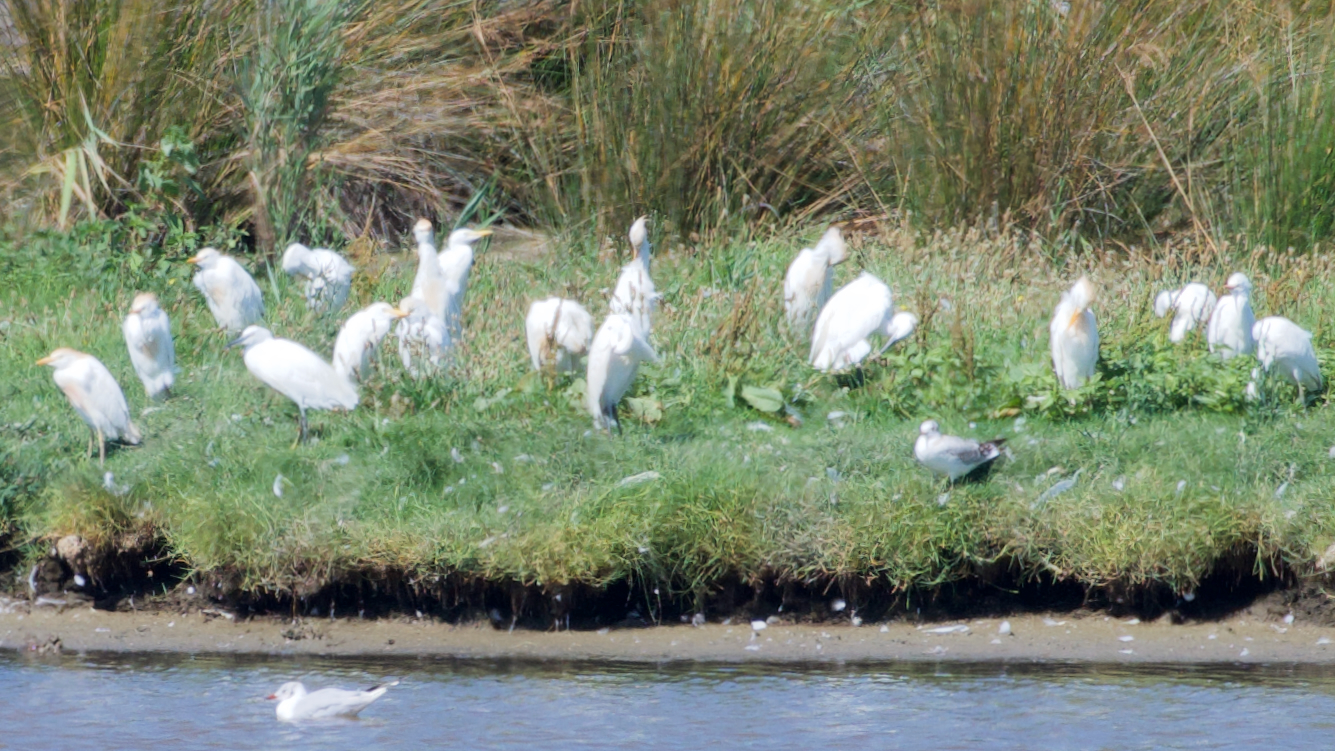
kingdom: Animalia
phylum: Chordata
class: Aves
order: Pelecaniformes
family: Ardeidae
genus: Bubulcus
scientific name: Bubulcus ibis
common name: Cattle egret
